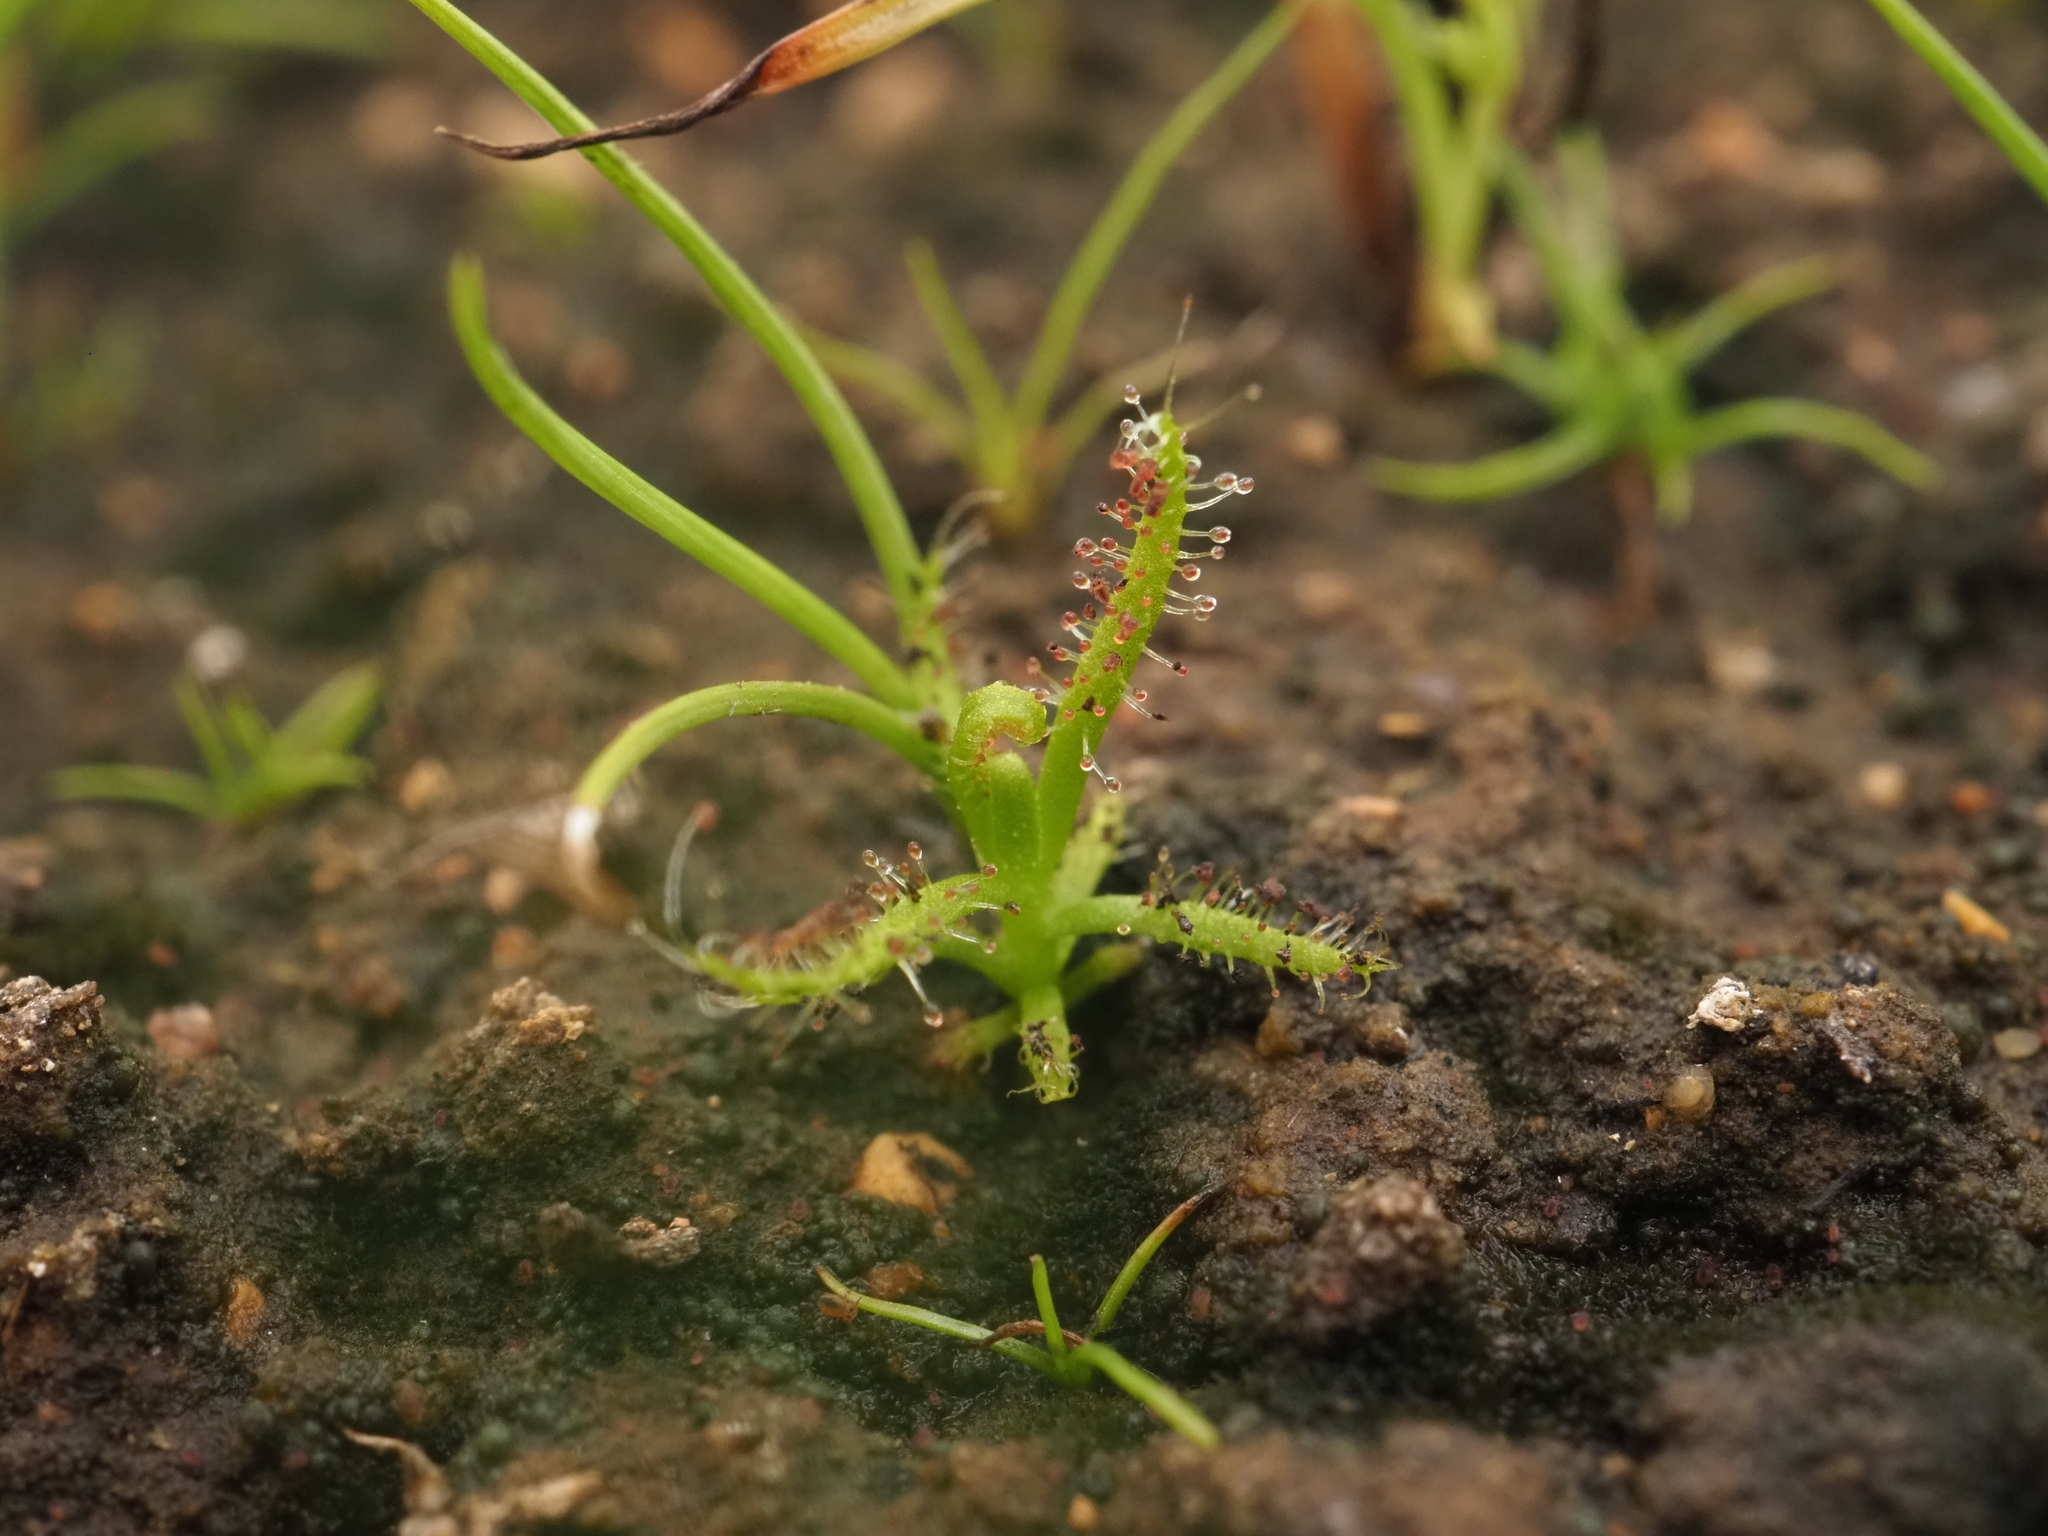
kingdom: Plantae
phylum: Tracheophyta
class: Magnoliopsida
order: Caryophyllales
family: Droseraceae
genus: Drosera
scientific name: Drosera finlaysoniana
